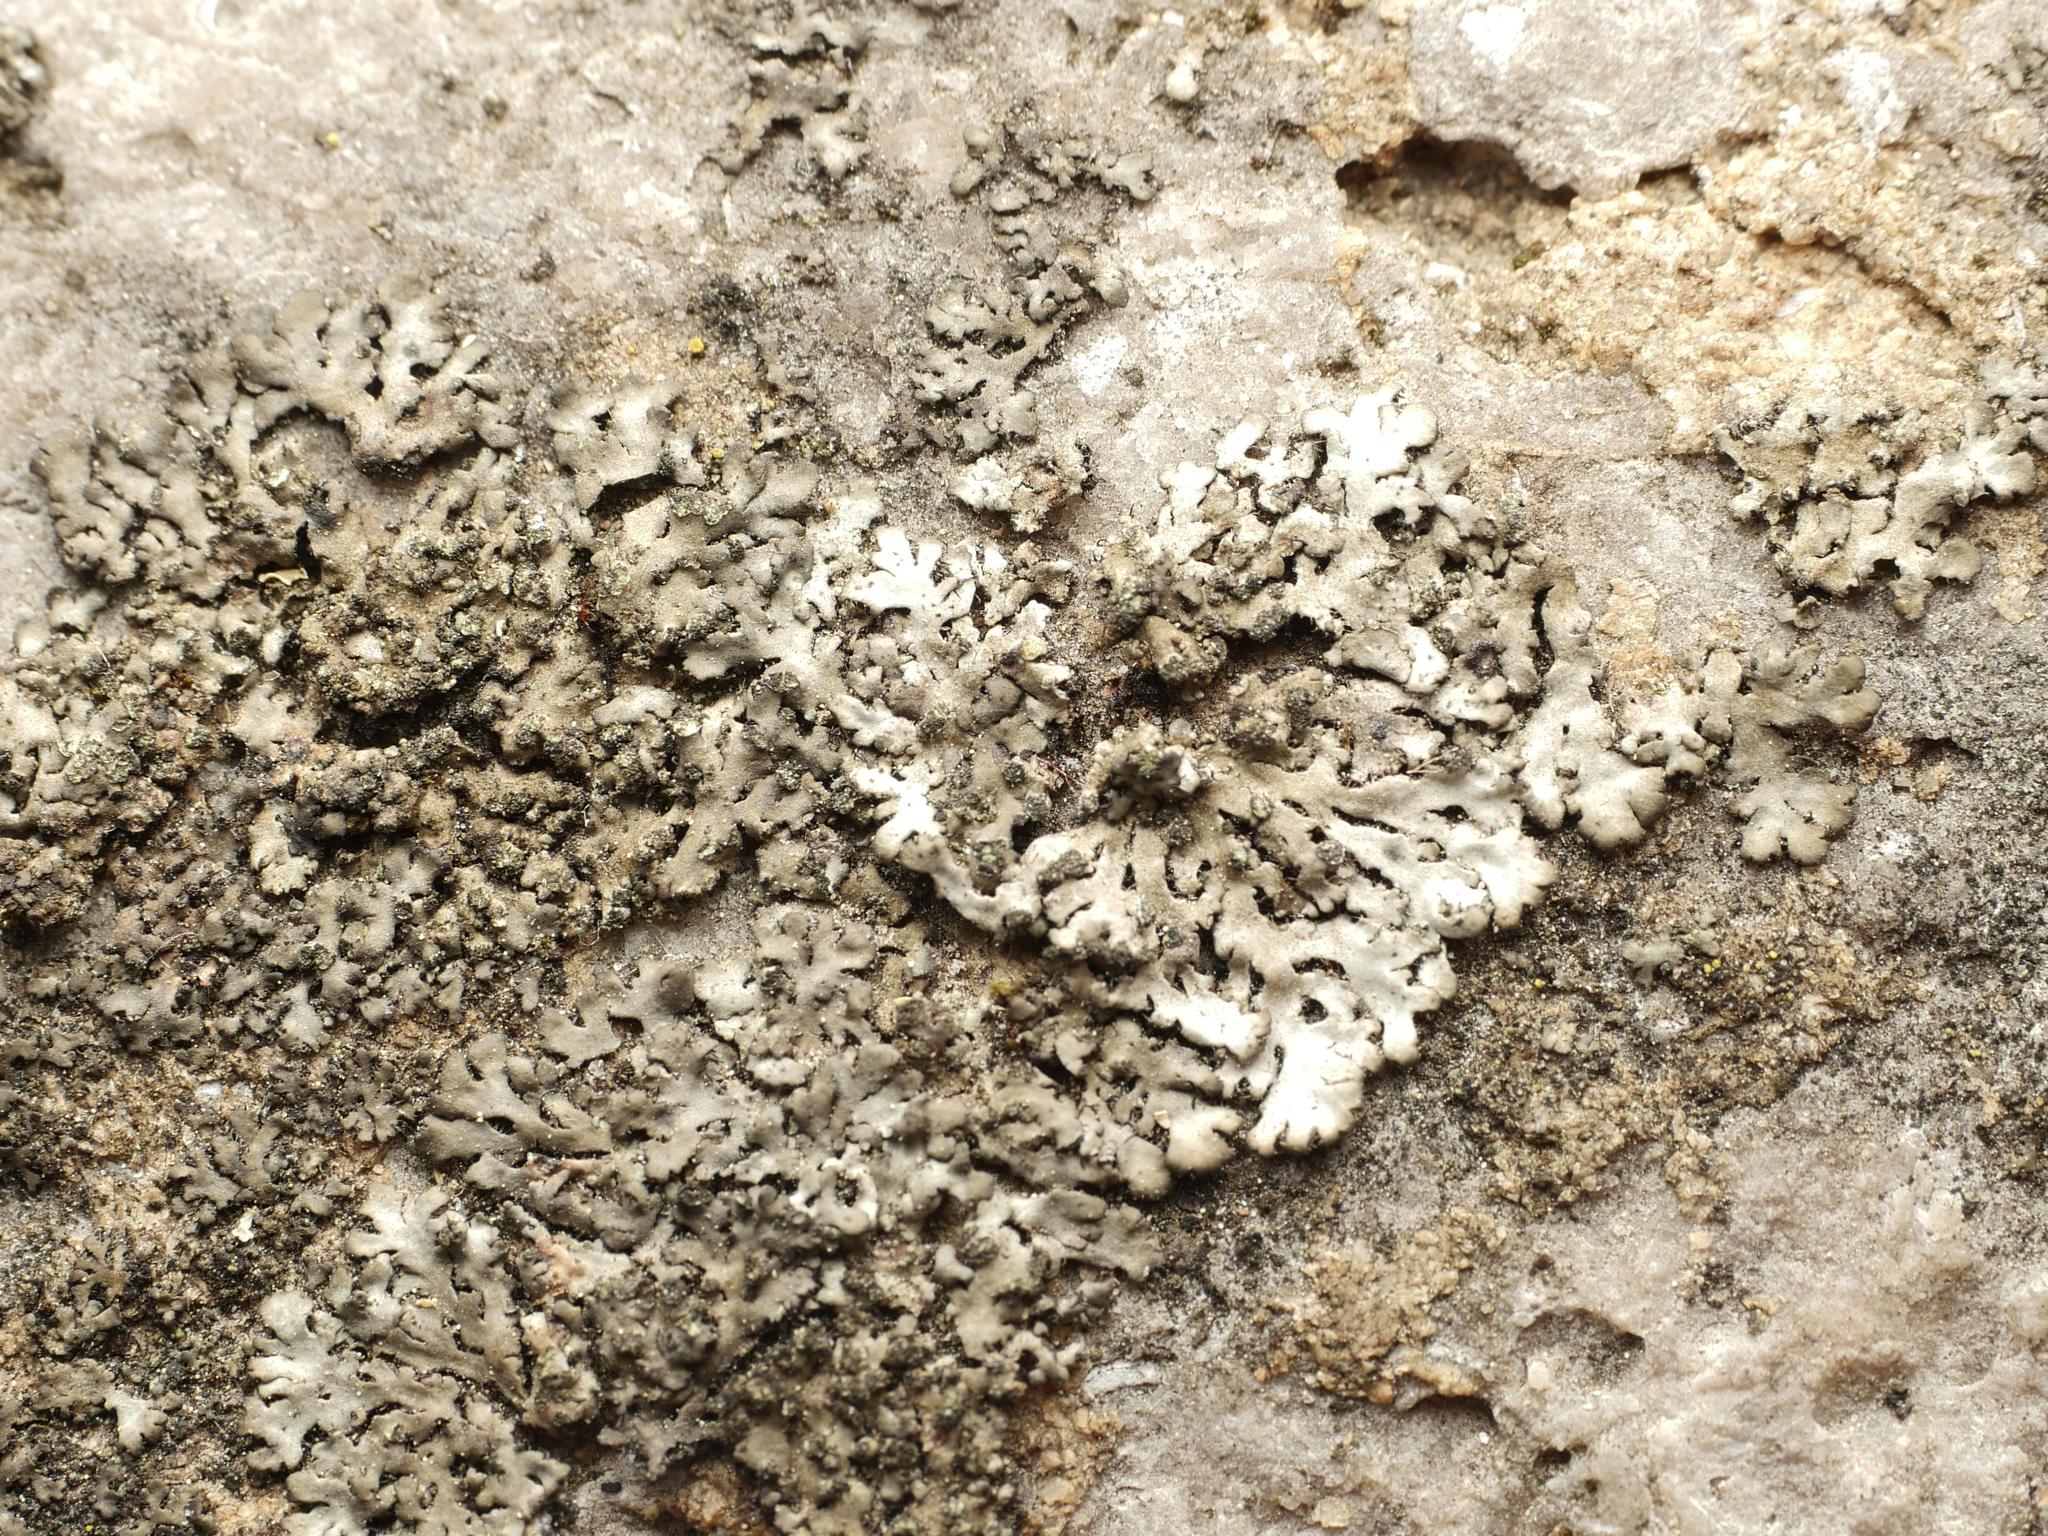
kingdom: Fungi
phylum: Ascomycota
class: Lecanoromycetes
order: Caliciales
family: Physciaceae
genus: Phaeophyscia
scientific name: Phaeophyscia orbicularis
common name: Mealy shadow lichen
